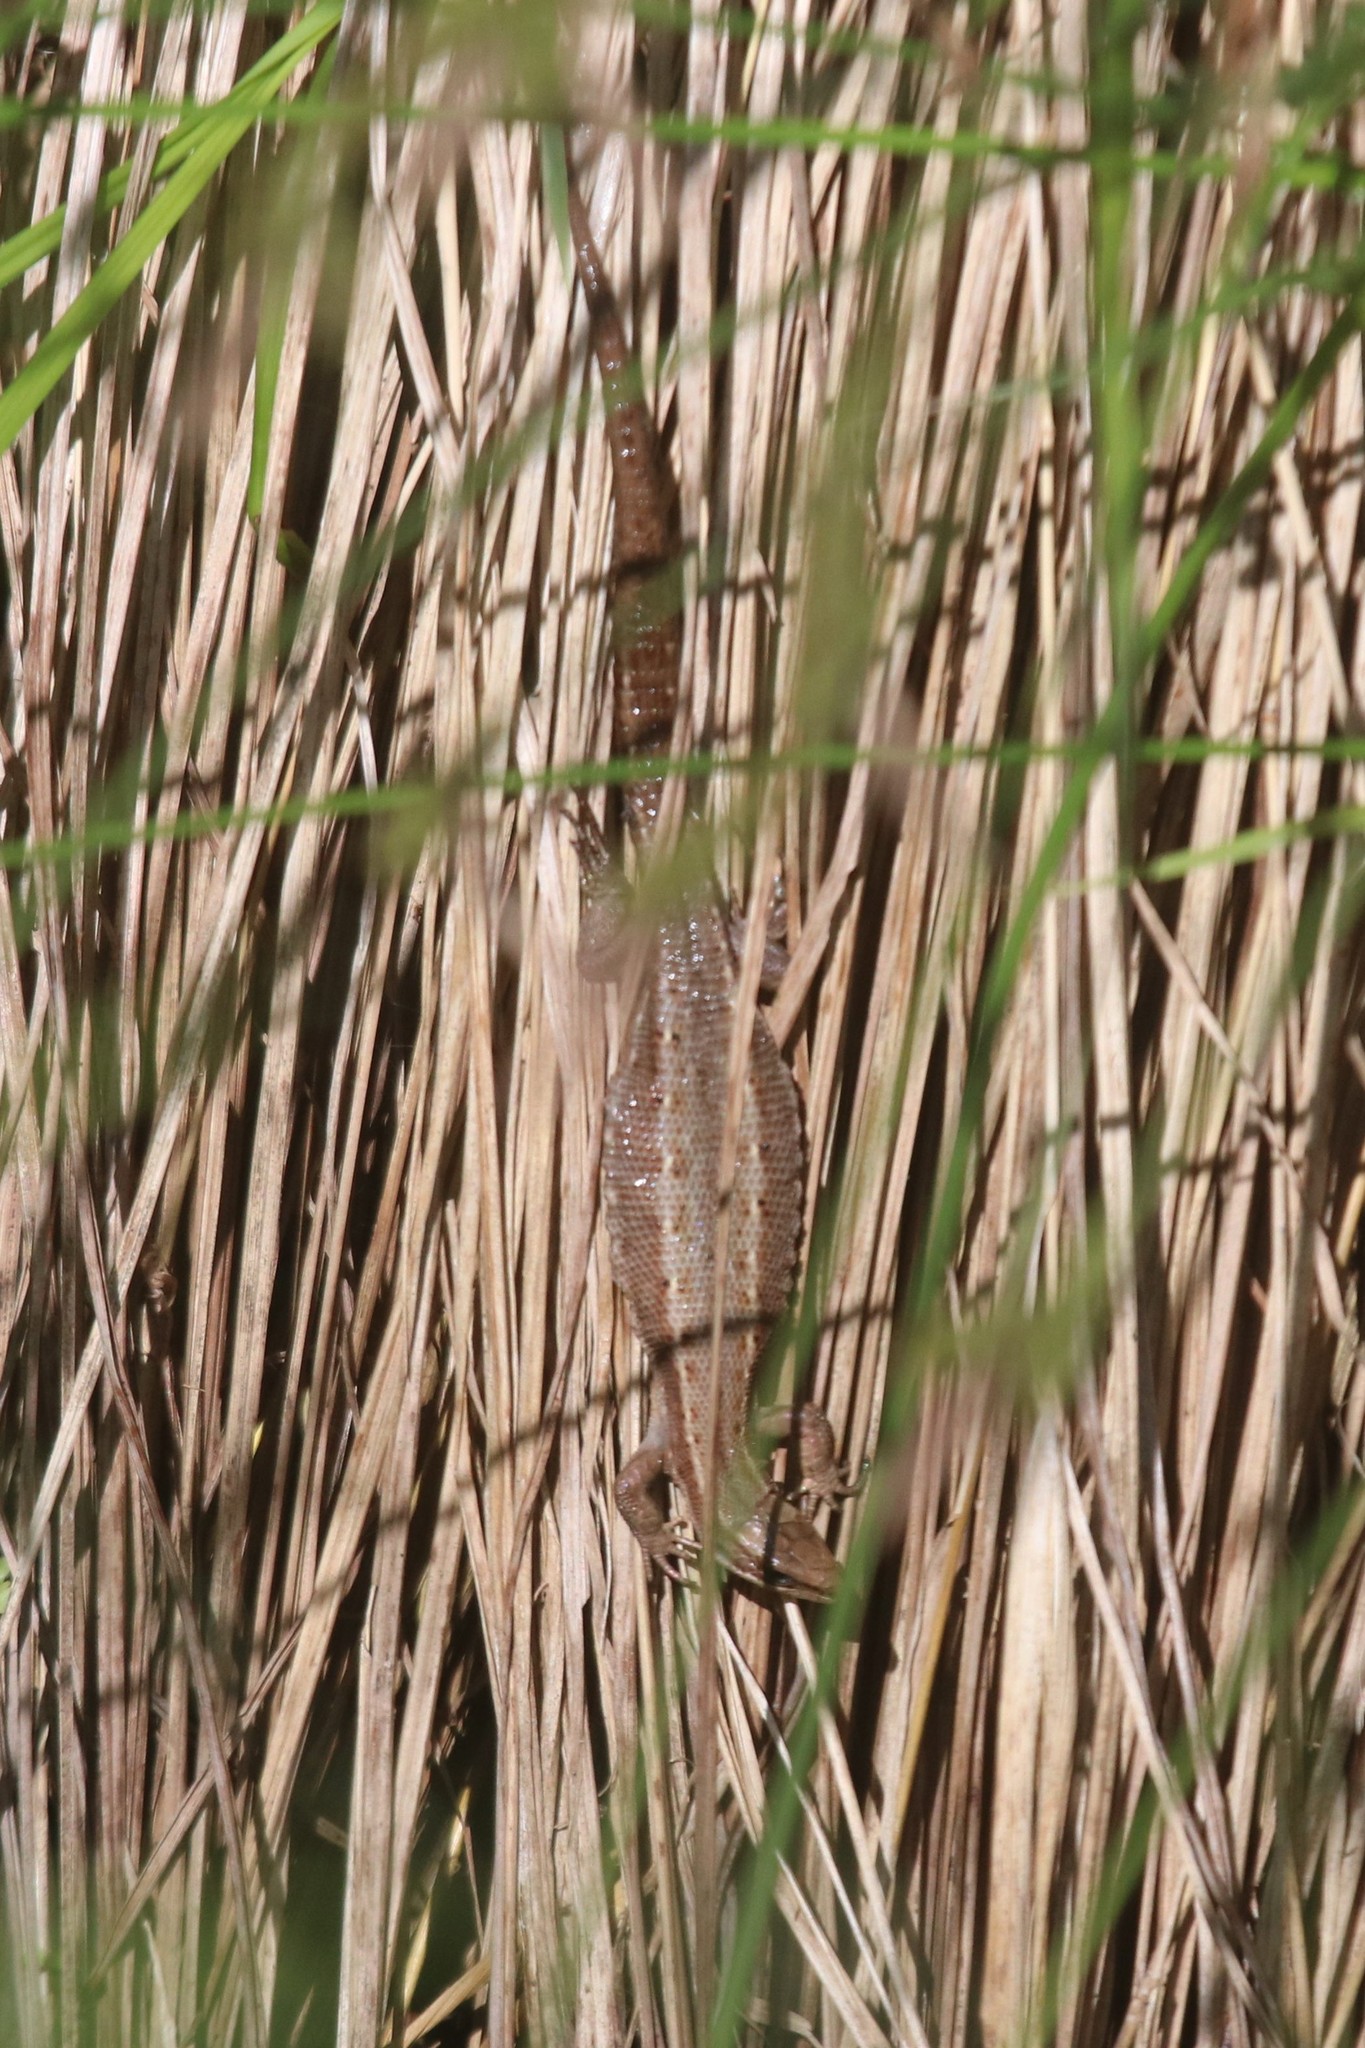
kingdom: Animalia
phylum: Chordata
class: Squamata
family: Lacertidae
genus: Zootoca
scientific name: Zootoca vivipara
